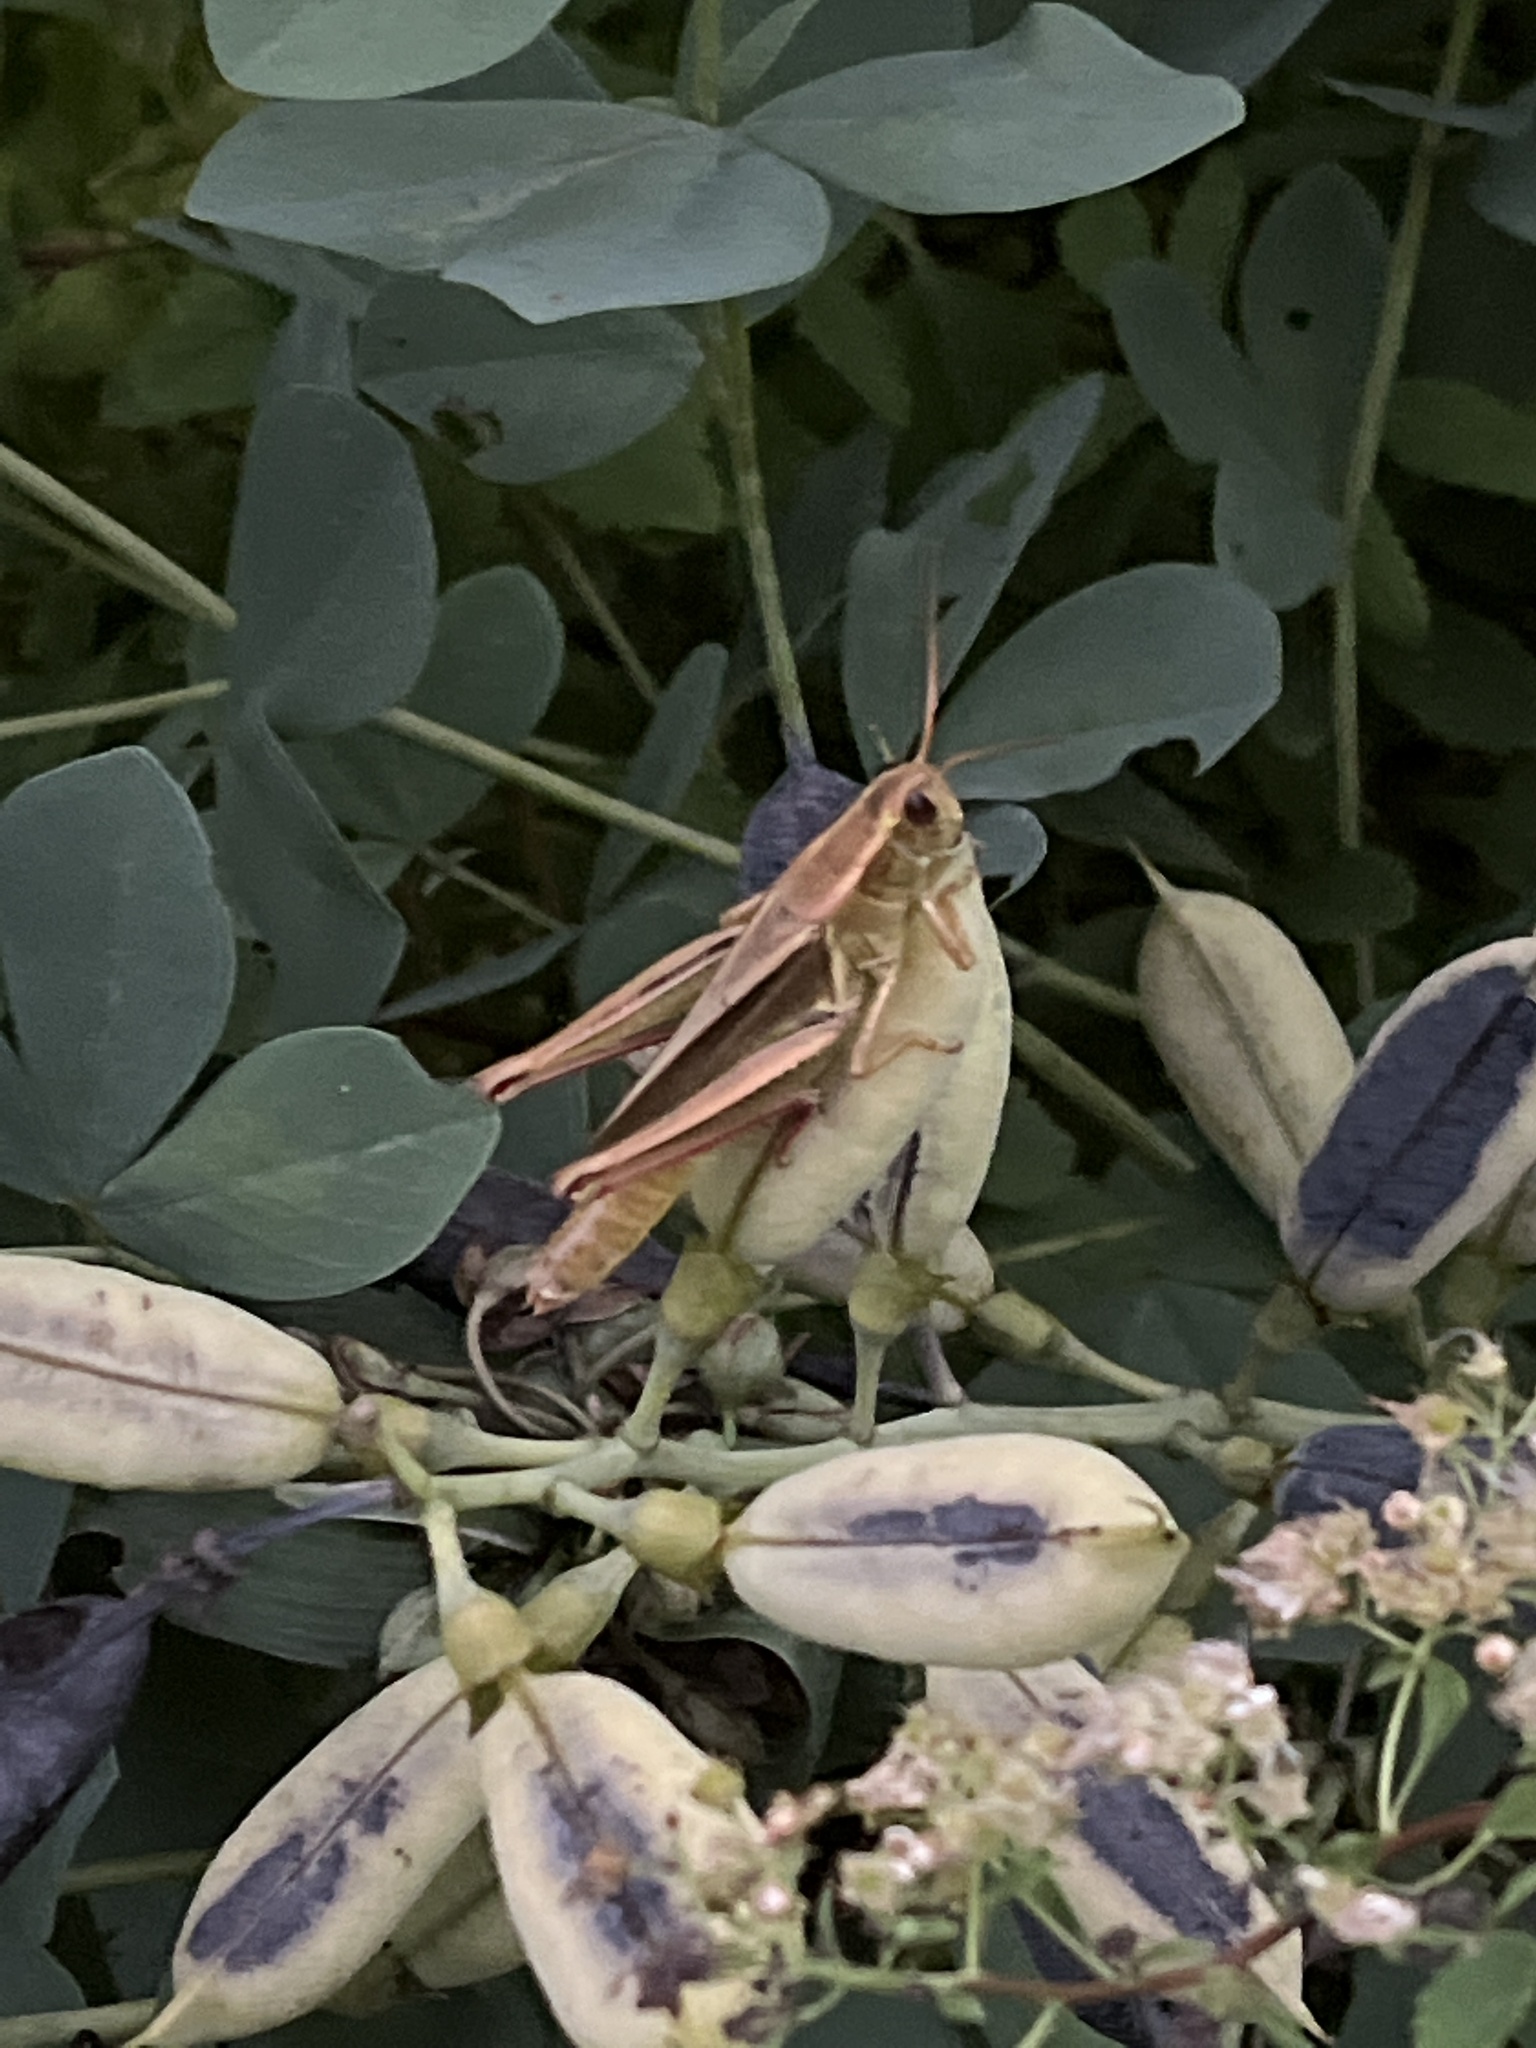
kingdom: Animalia
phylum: Arthropoda
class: Insecta
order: Orthoptera
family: Acrididae
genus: Melanoplus
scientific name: Melanoplus bivittatus
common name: Two-striped grasshopper
